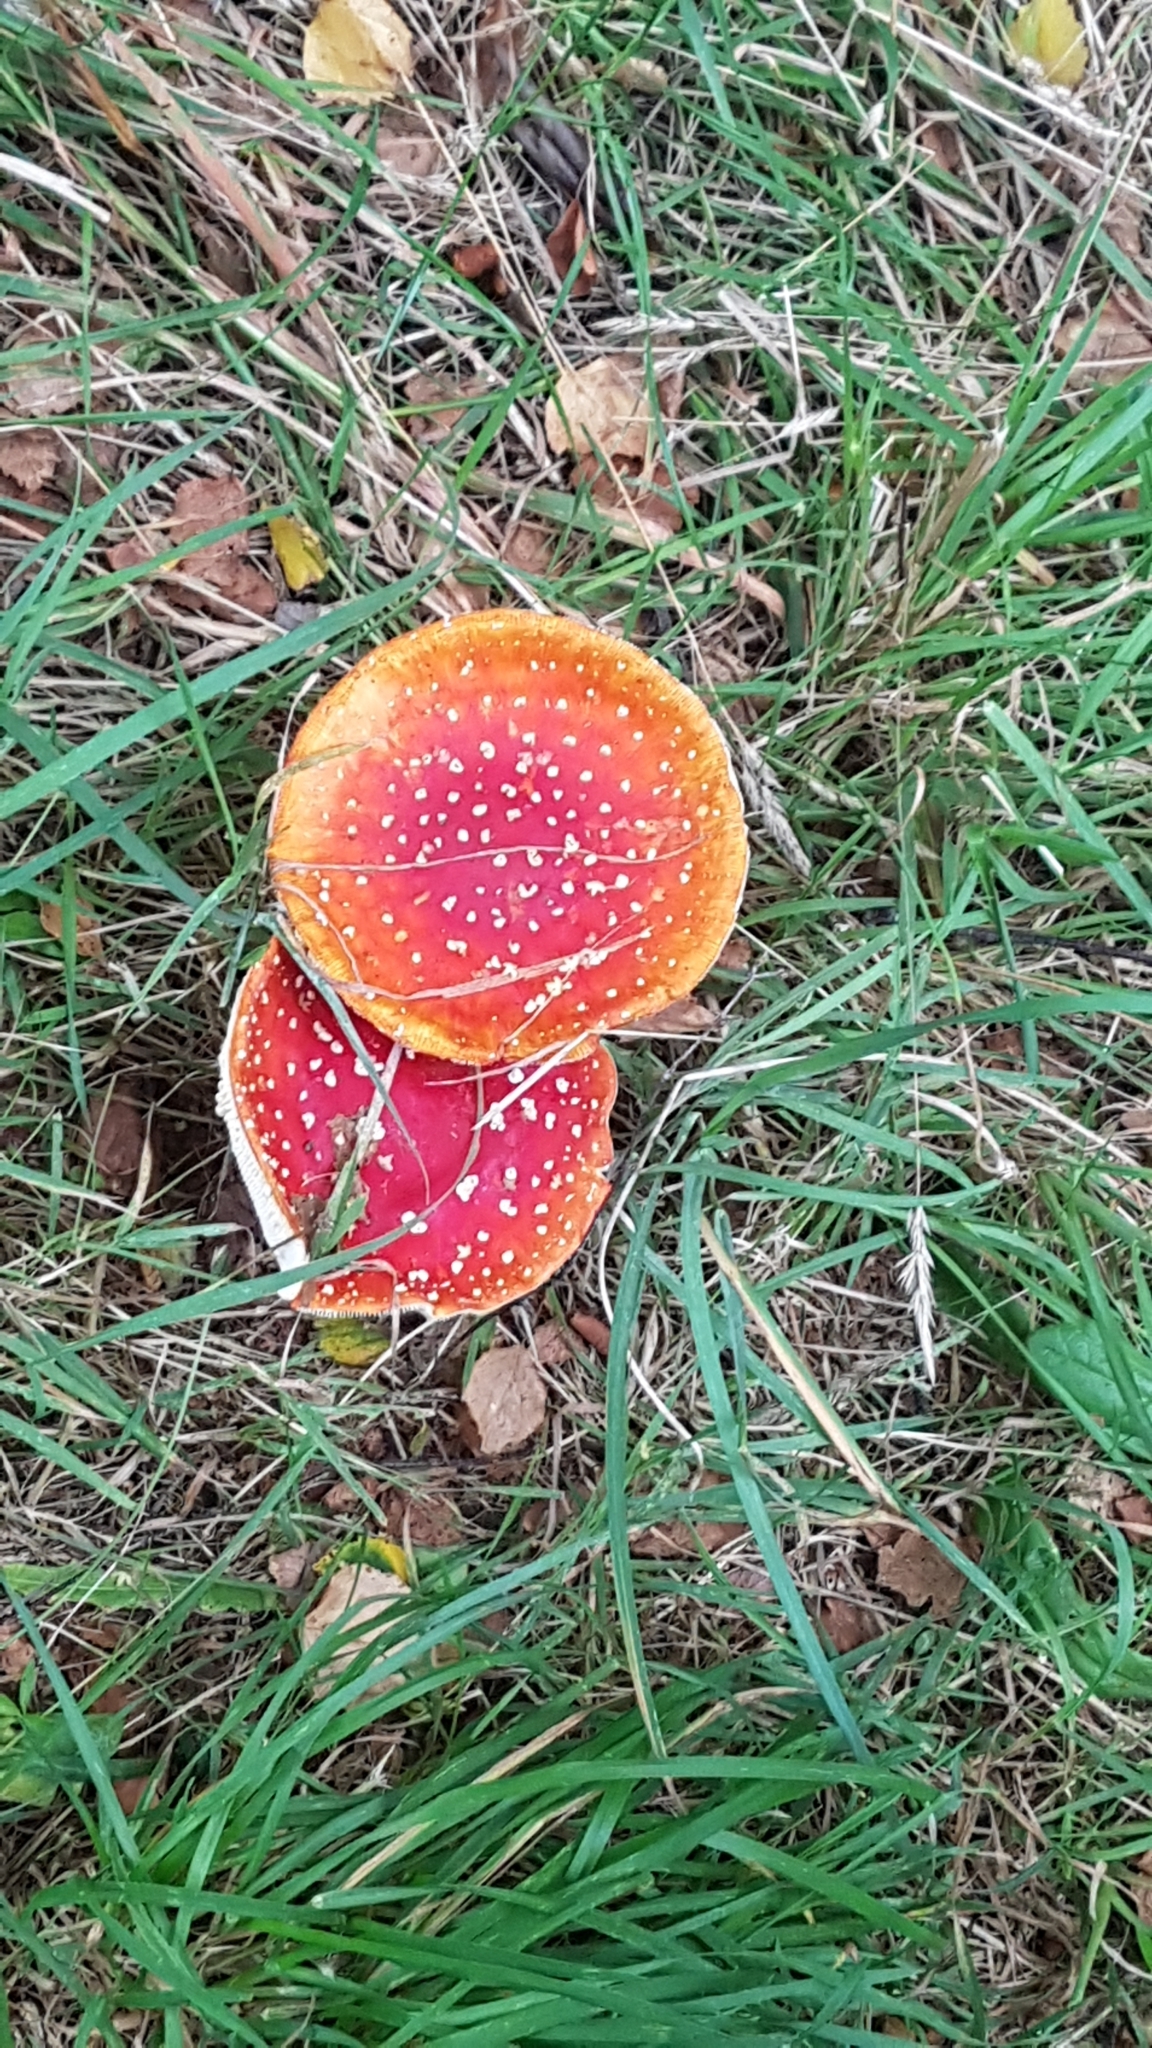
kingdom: Fungi
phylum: Basidiomycota
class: Agaricomycetes
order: Agaricales
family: Amanitaceae
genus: Amanita
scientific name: Amanita muscaria
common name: Fly agaric
